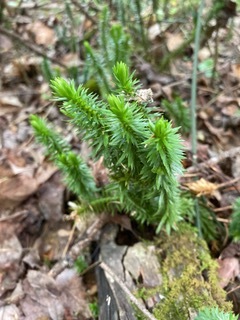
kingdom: Plantae
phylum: Tracheophyta
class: Lycopodiopsida
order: Lycopodiales
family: Lycopodiaceae
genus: Huperzia
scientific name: Huperzia lucidula
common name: Shining clubmoss
